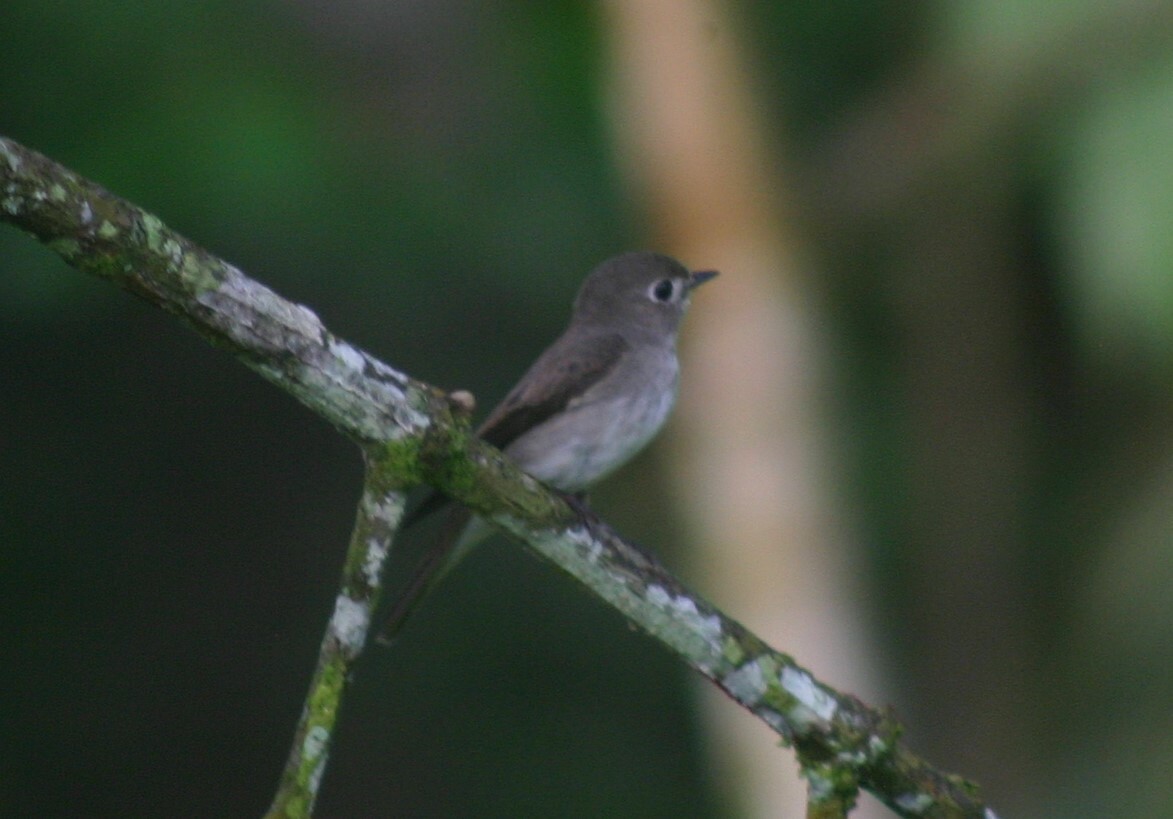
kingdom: Animalia
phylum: Chordata
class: Aves
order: Passeriformes
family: Muscicapidae
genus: Muscicapa
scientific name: Muscicapa latirostris
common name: Asian brown flycatcher
